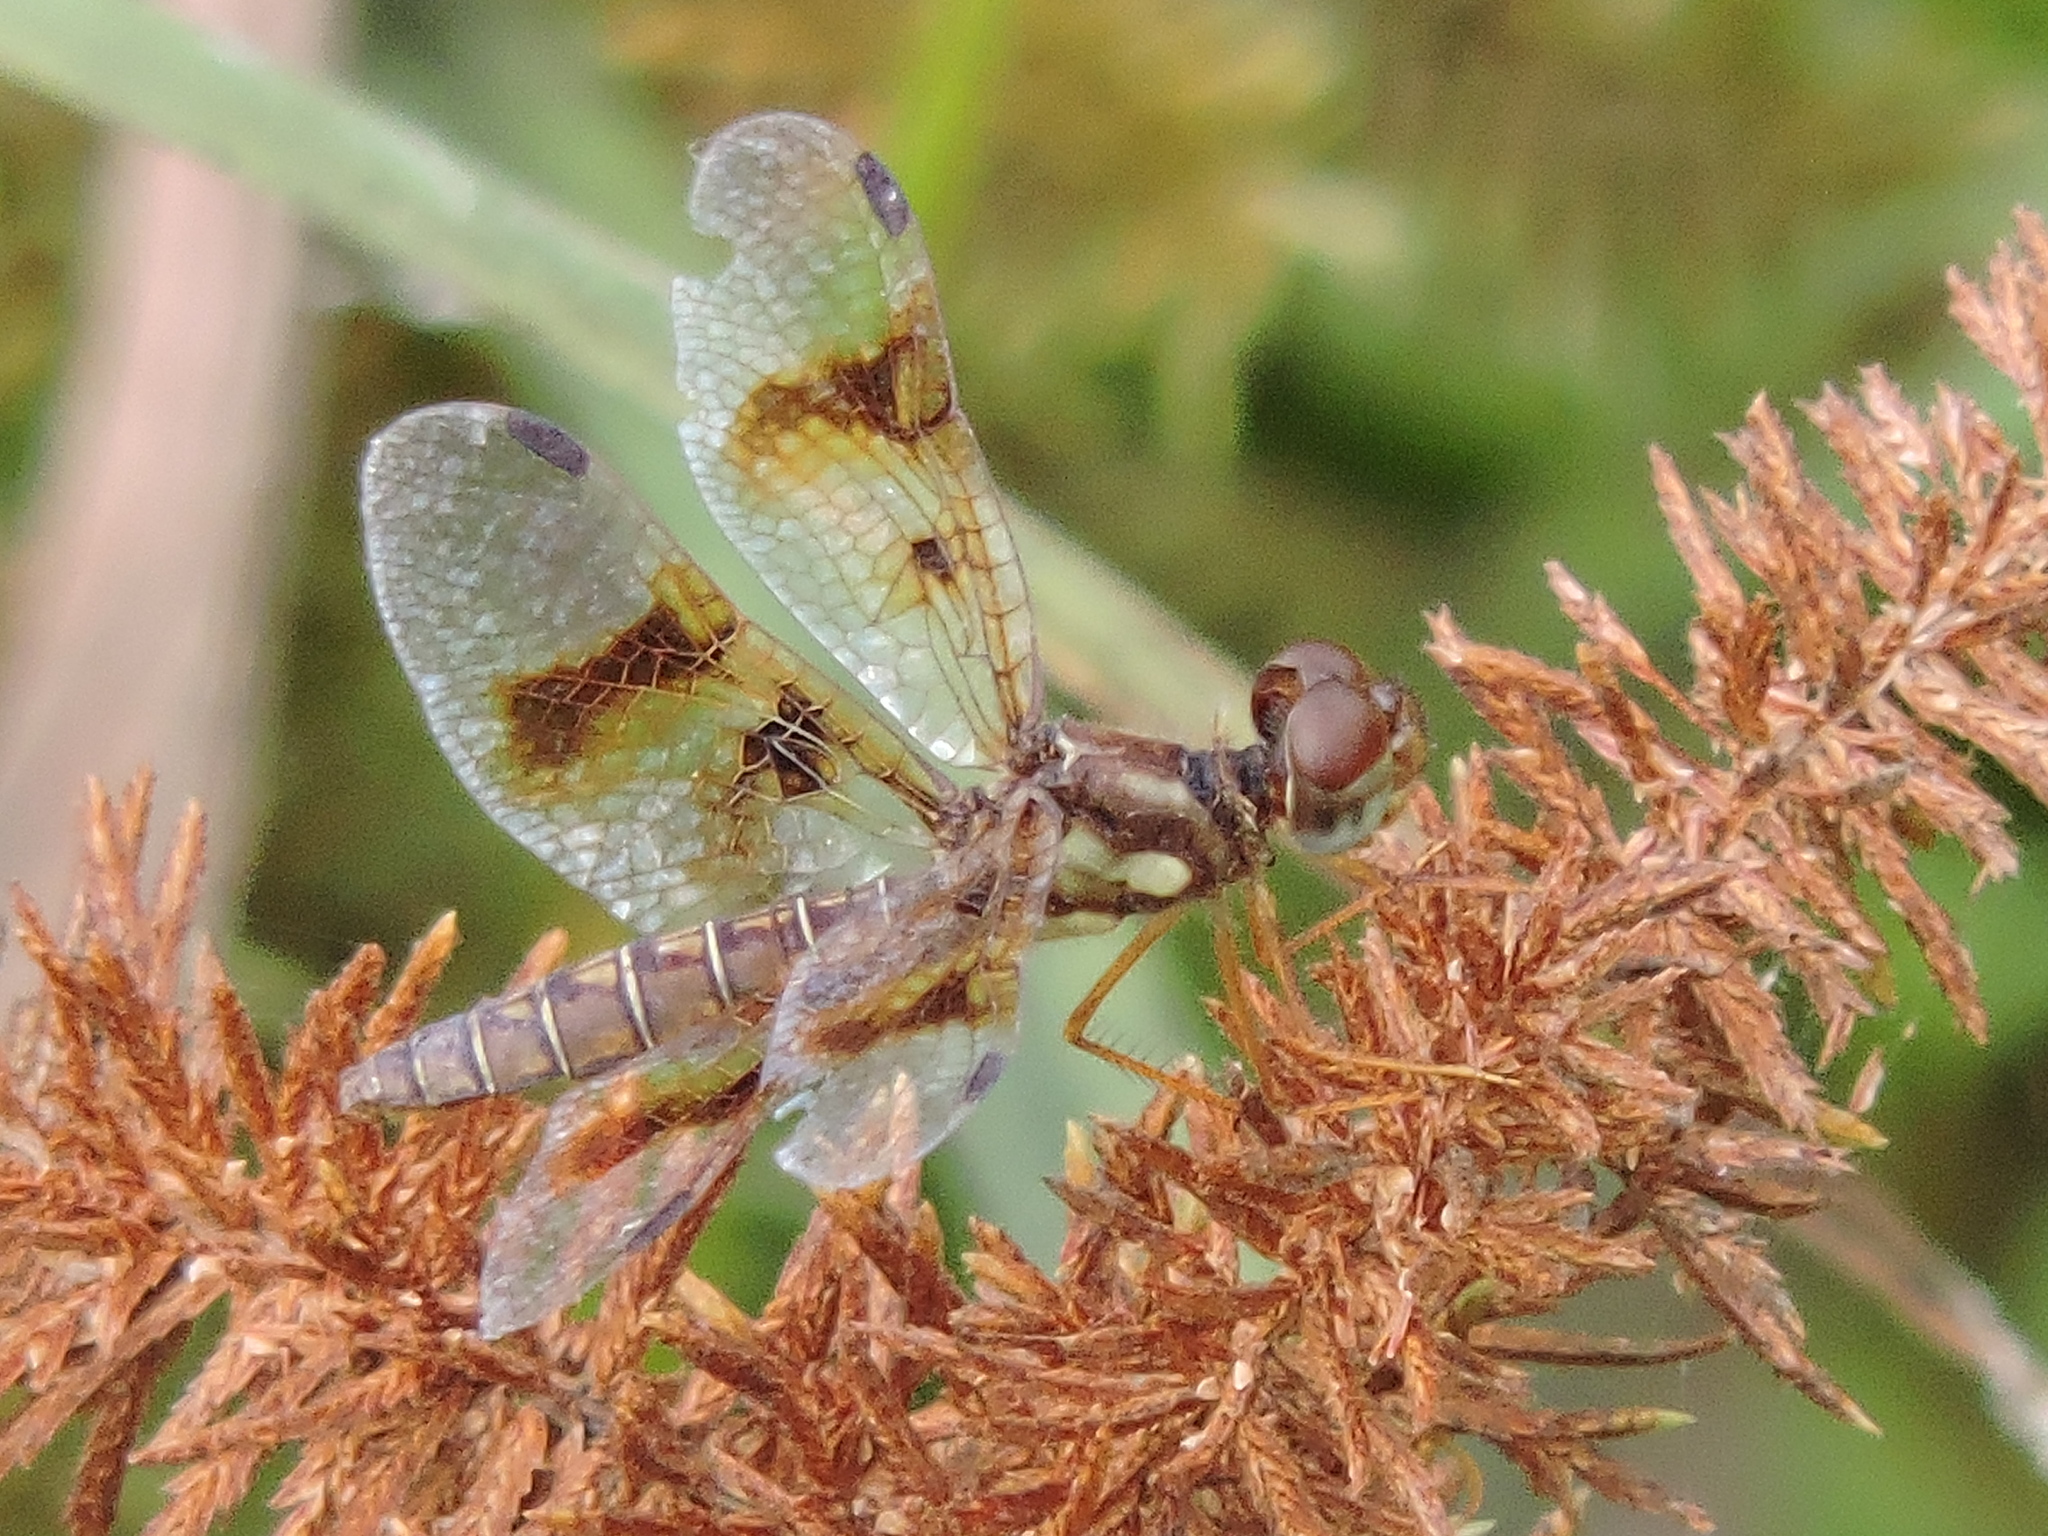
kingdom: Animalia
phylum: Arthropoda
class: Insecta
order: Odonata
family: Libellulidae
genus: Perithemis
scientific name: Perithemis tenera
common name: Eastern amberwing
